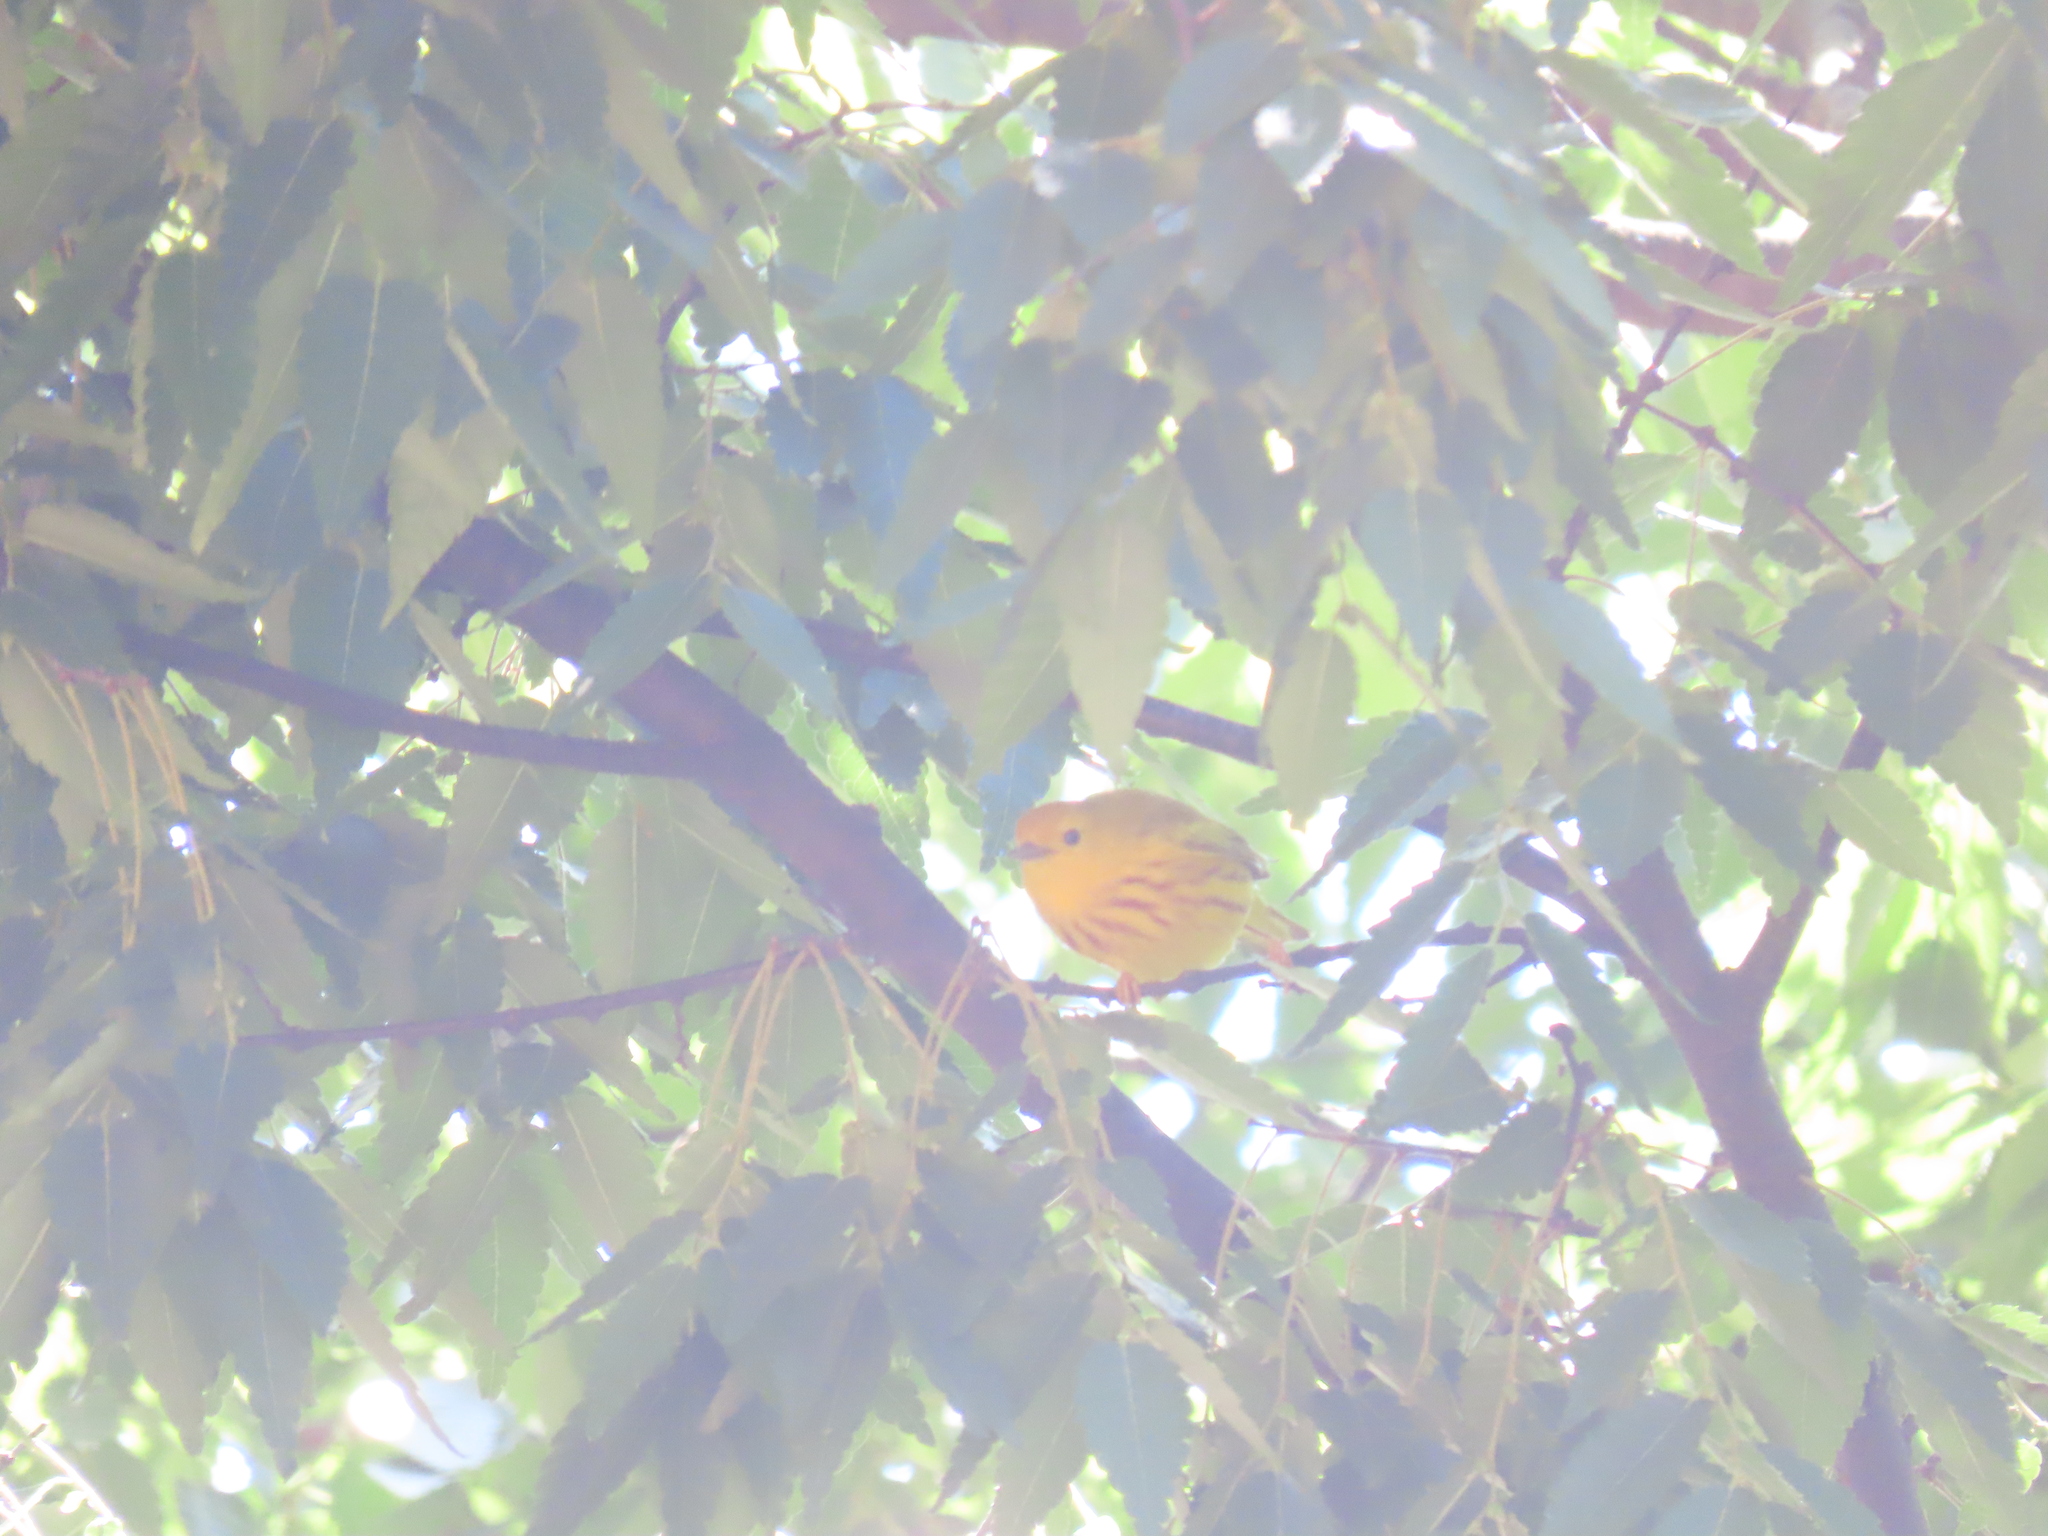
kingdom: Animalia
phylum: Chordata
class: Aves
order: Passeriformes
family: Parulidae
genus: Setophaga
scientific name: Setophaga petechia
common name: Yellow warbler
